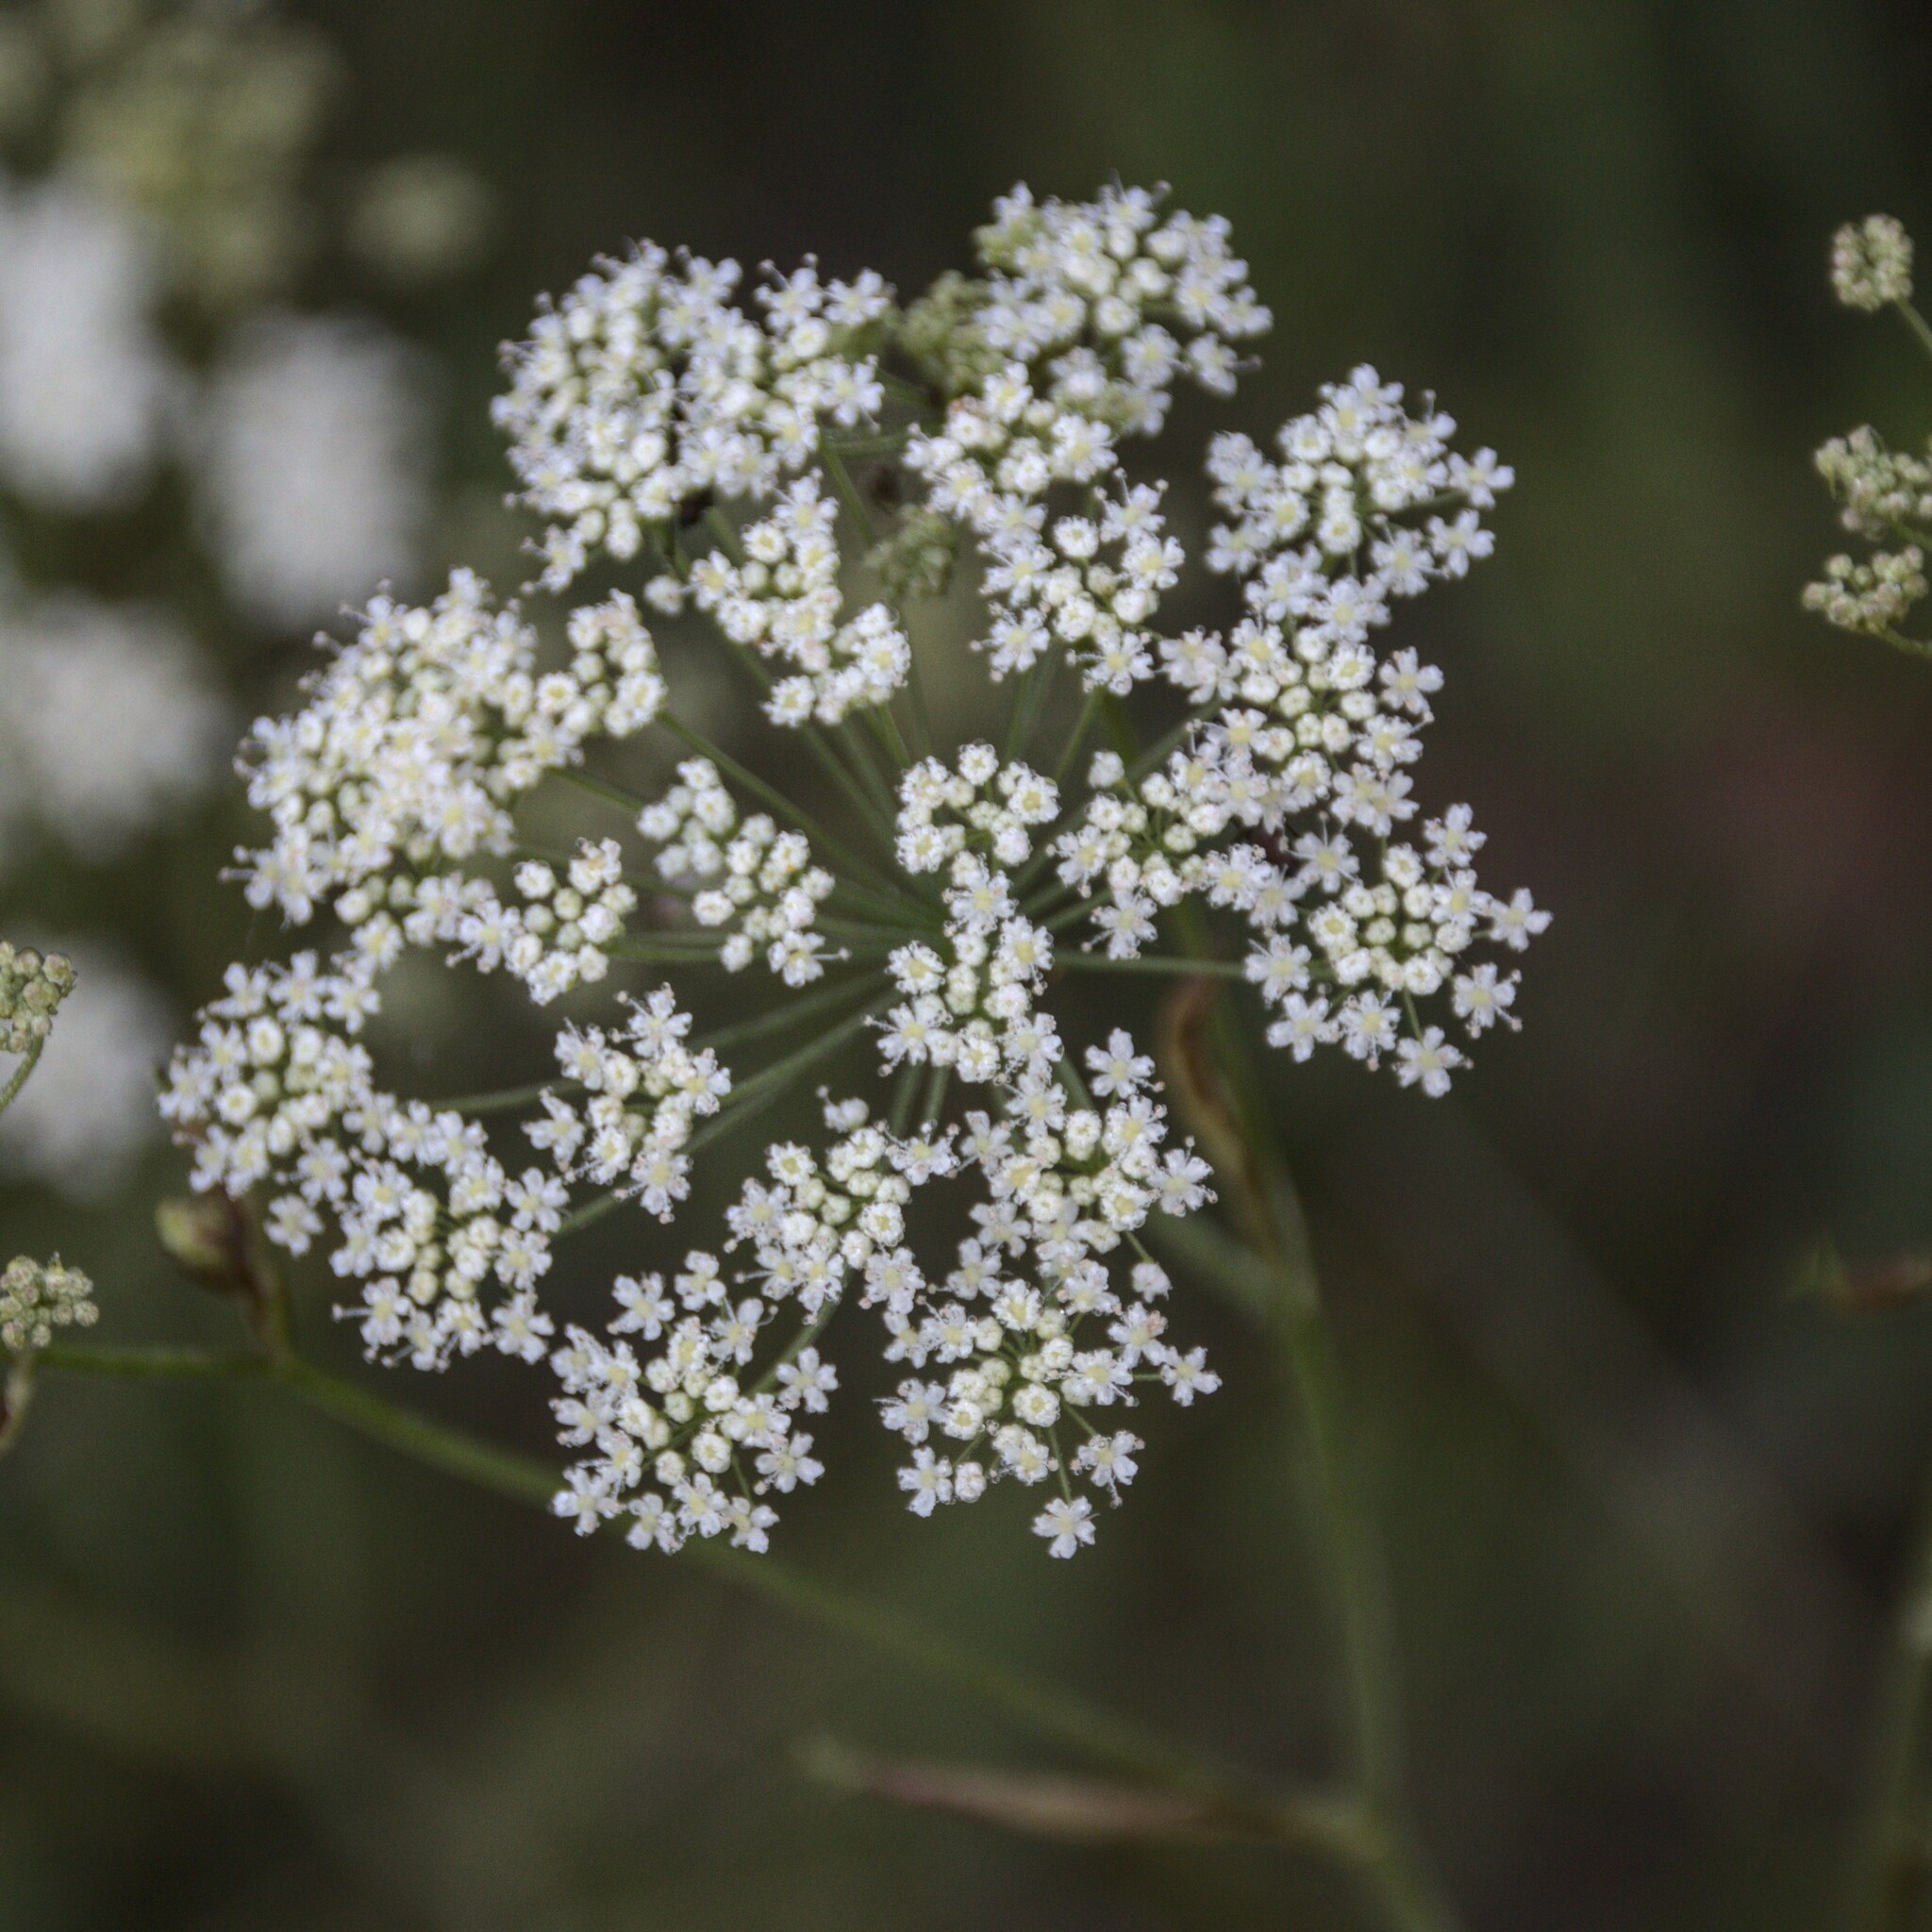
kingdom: Plantae
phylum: Tracheophyta
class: Magnoliopsida
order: Apiales
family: Apiaceae
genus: Pimpinella
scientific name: Pimpinella saxifraga
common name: Burnet-saxifrage
